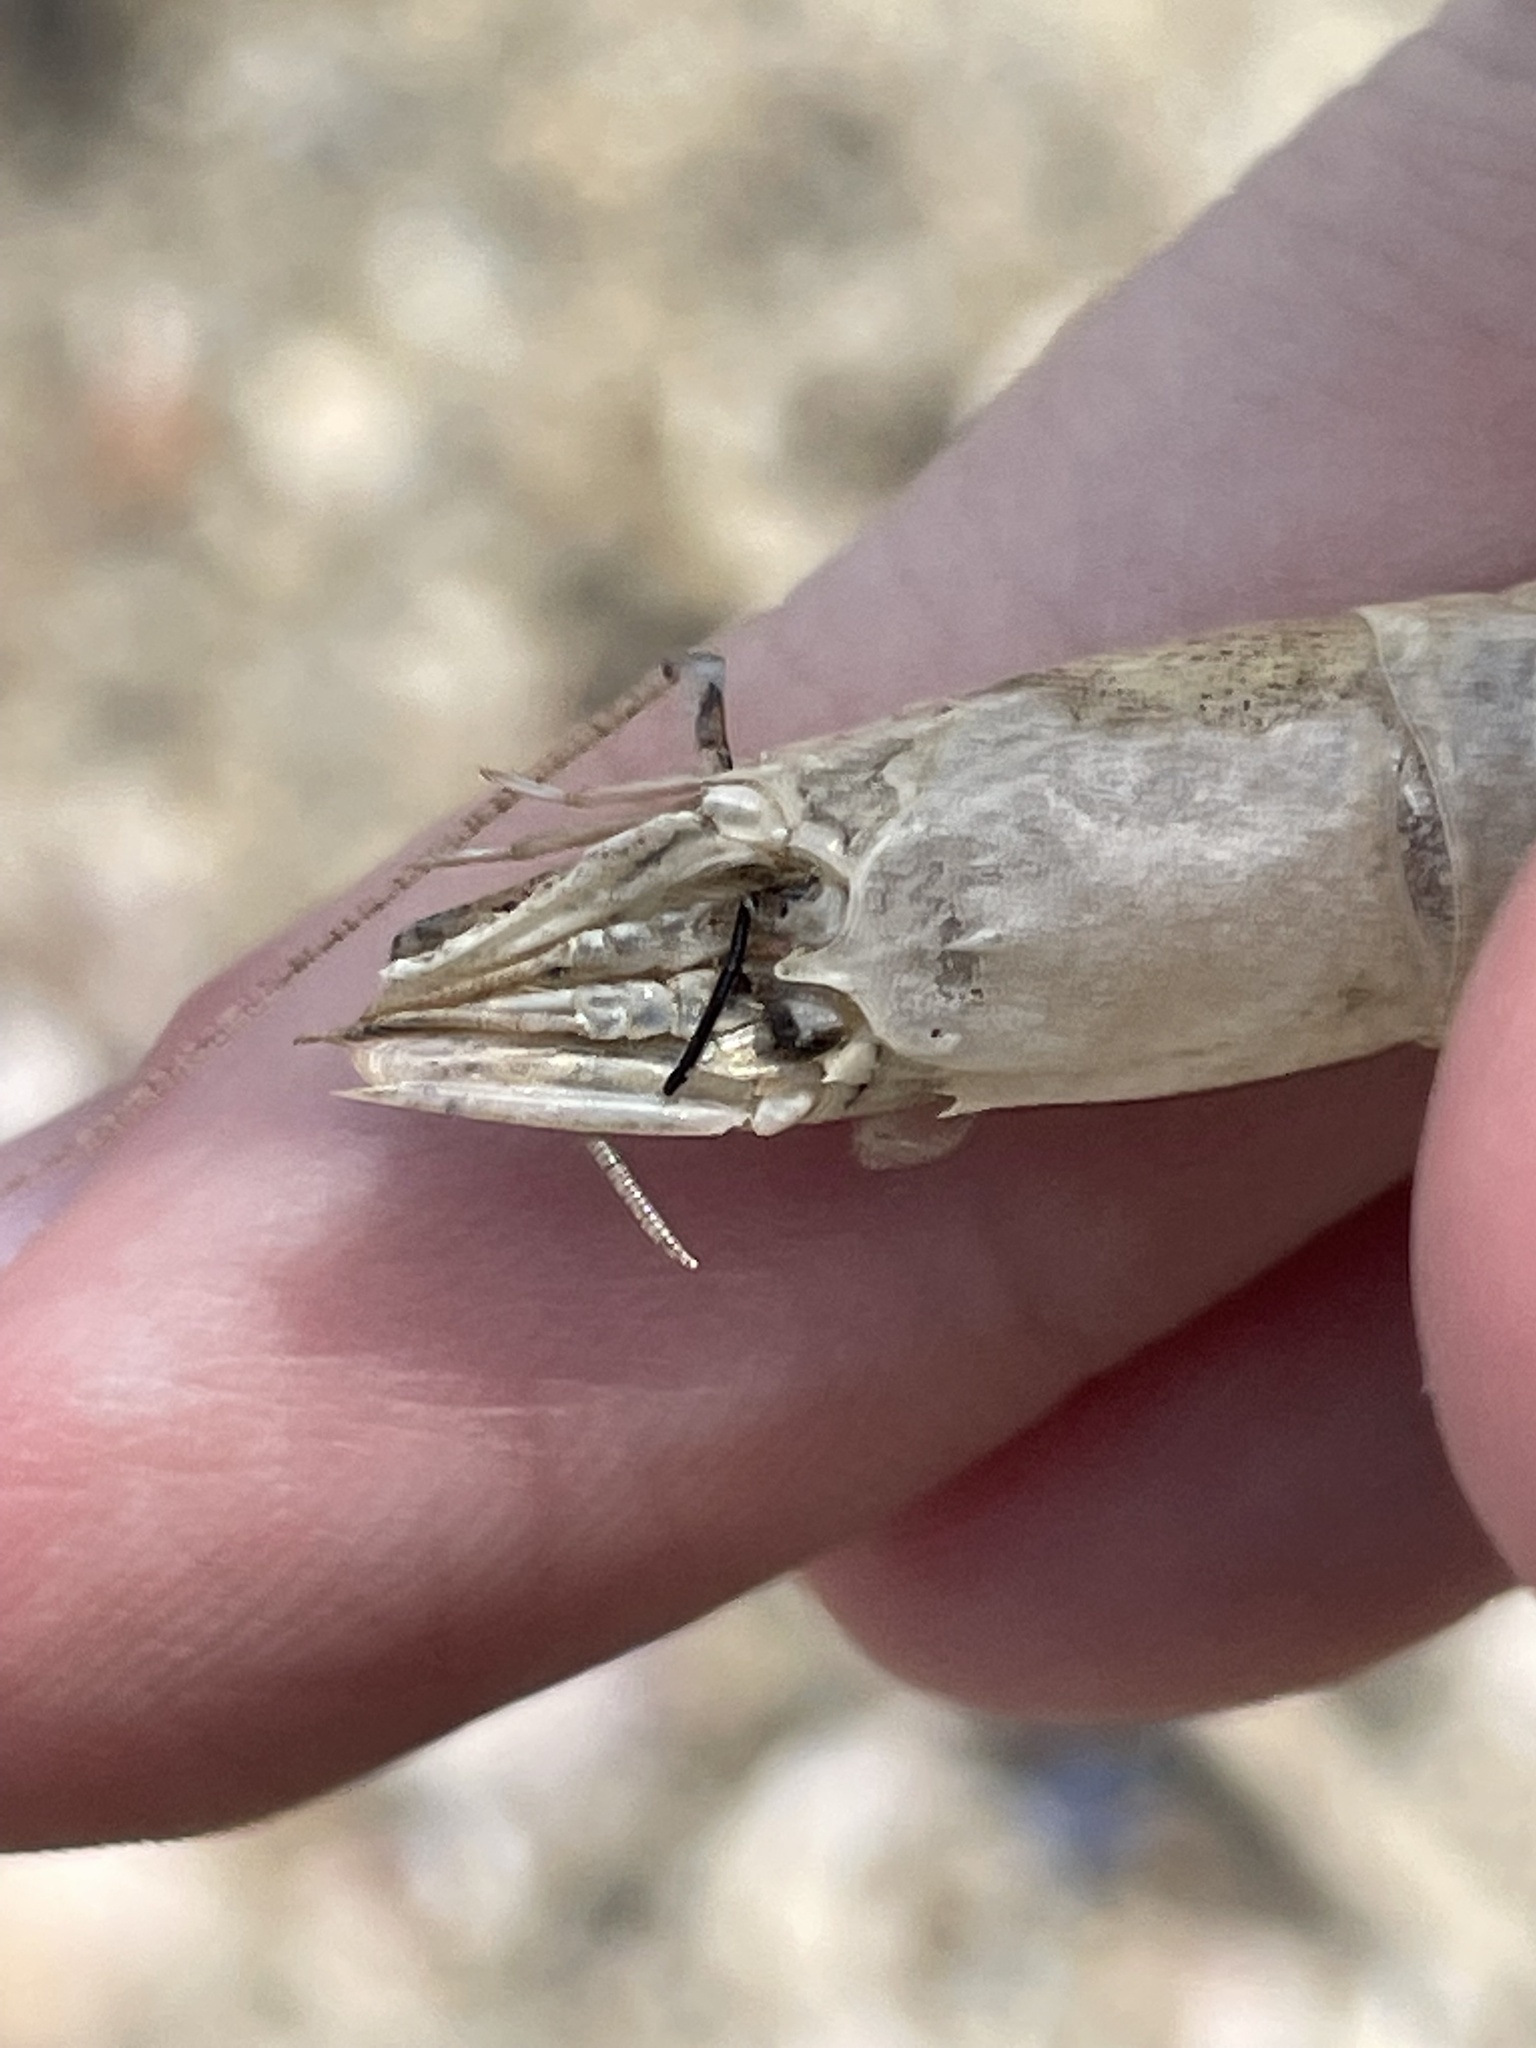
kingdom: Animalia
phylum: Arthropoda
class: Malacostraca
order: Decapoda
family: Crangonidae
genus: Crangon
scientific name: Crangon septemspinosa
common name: Bail shrimp
